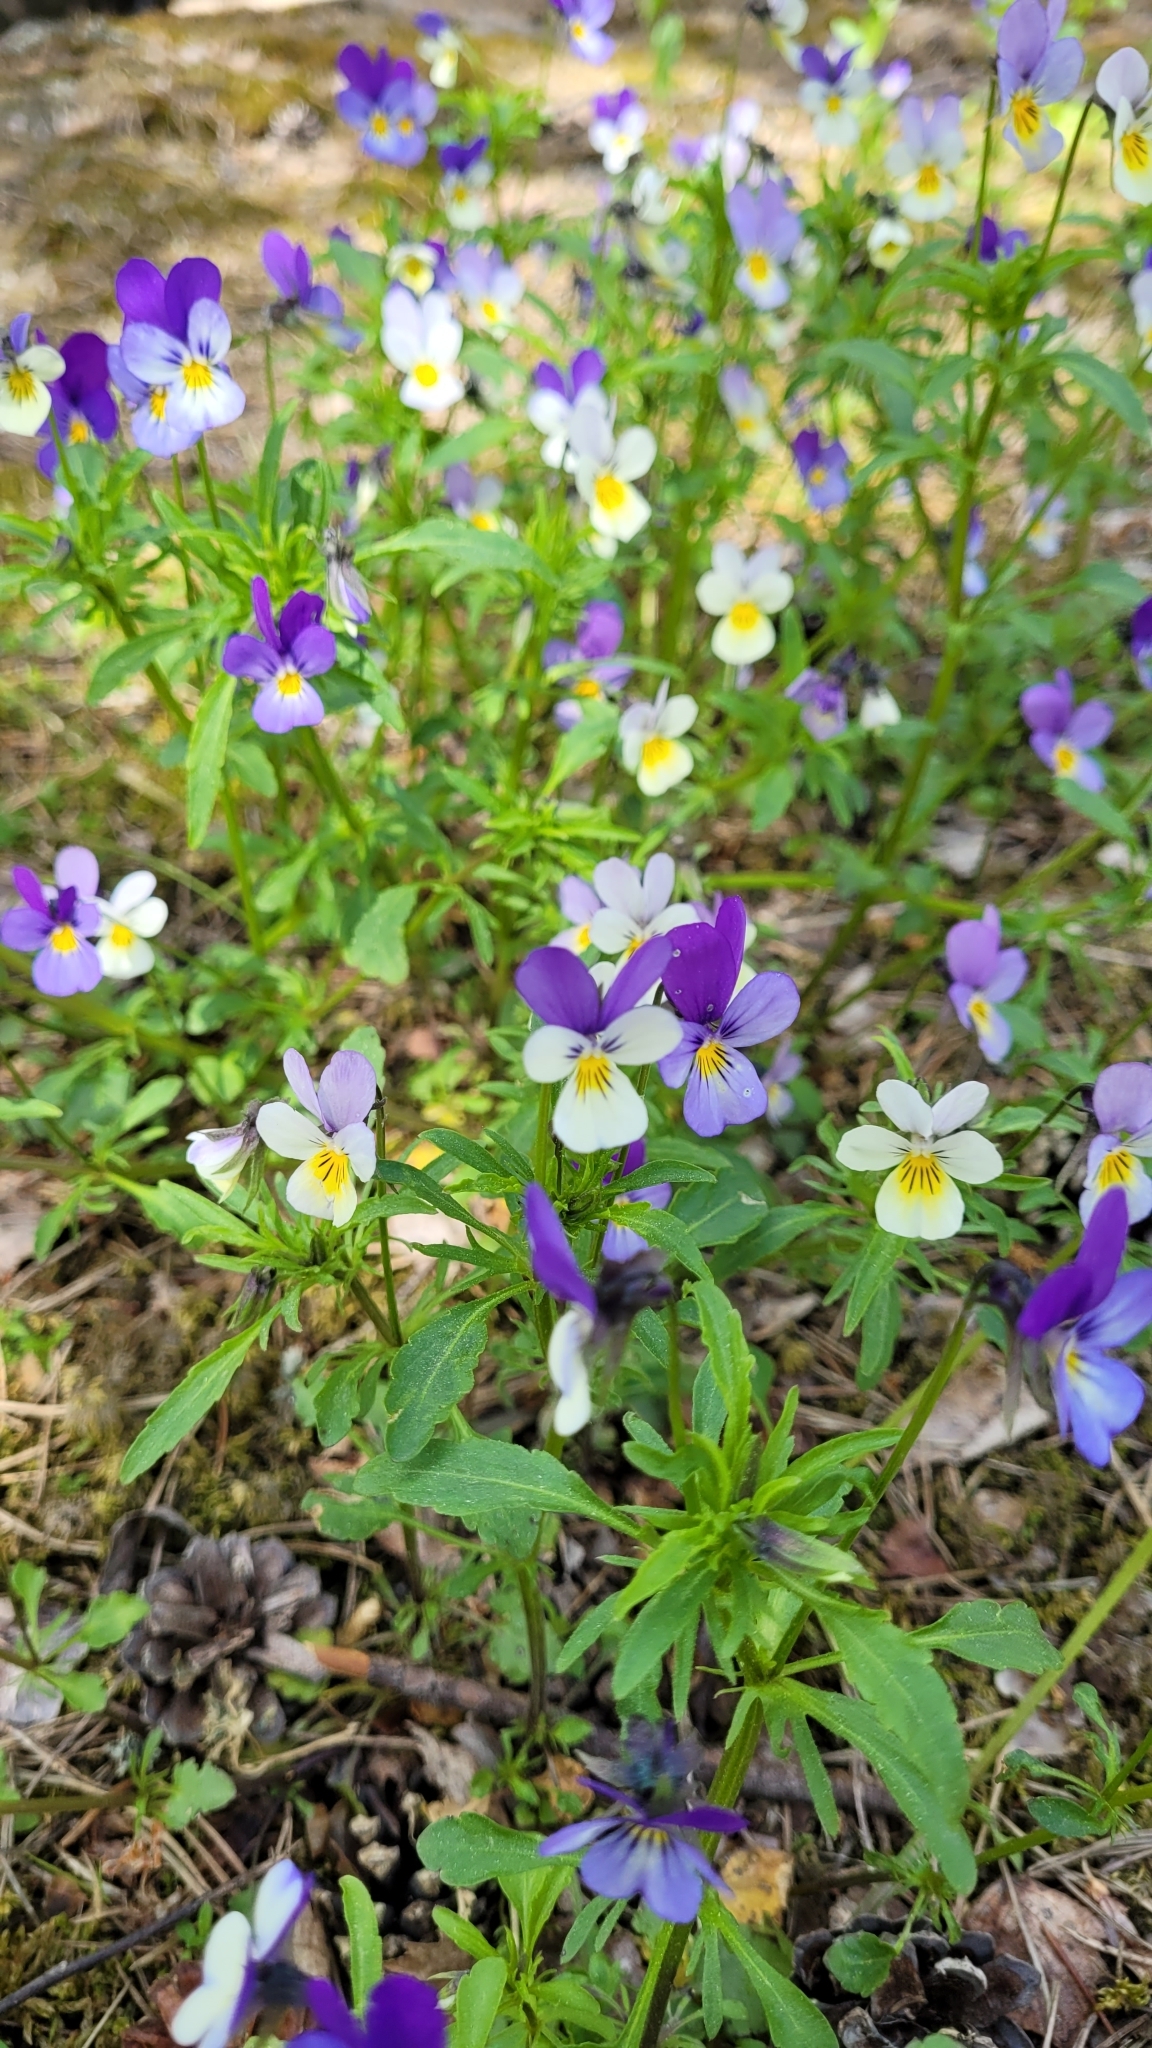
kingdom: Plantae
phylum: Tracheophyta
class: Magnoliopsida
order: Malpighiales
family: Violaceae
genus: Viola
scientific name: Viola tricolor
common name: Pansy
